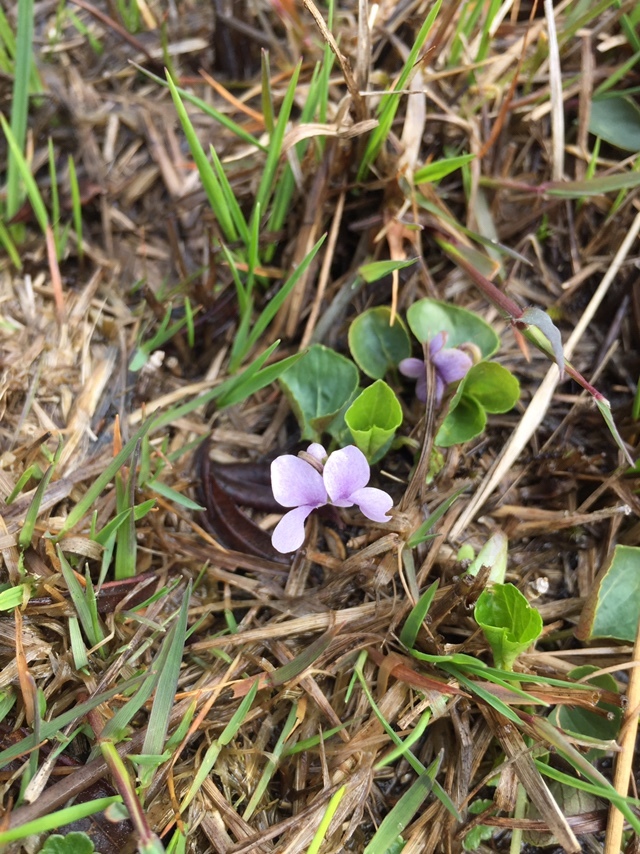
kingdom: Plantae
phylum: Tracheophyta
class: Magnoliopsida
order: Malpighiales
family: Violaceae
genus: Viola
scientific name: Viola palustris
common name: Marsh violet
